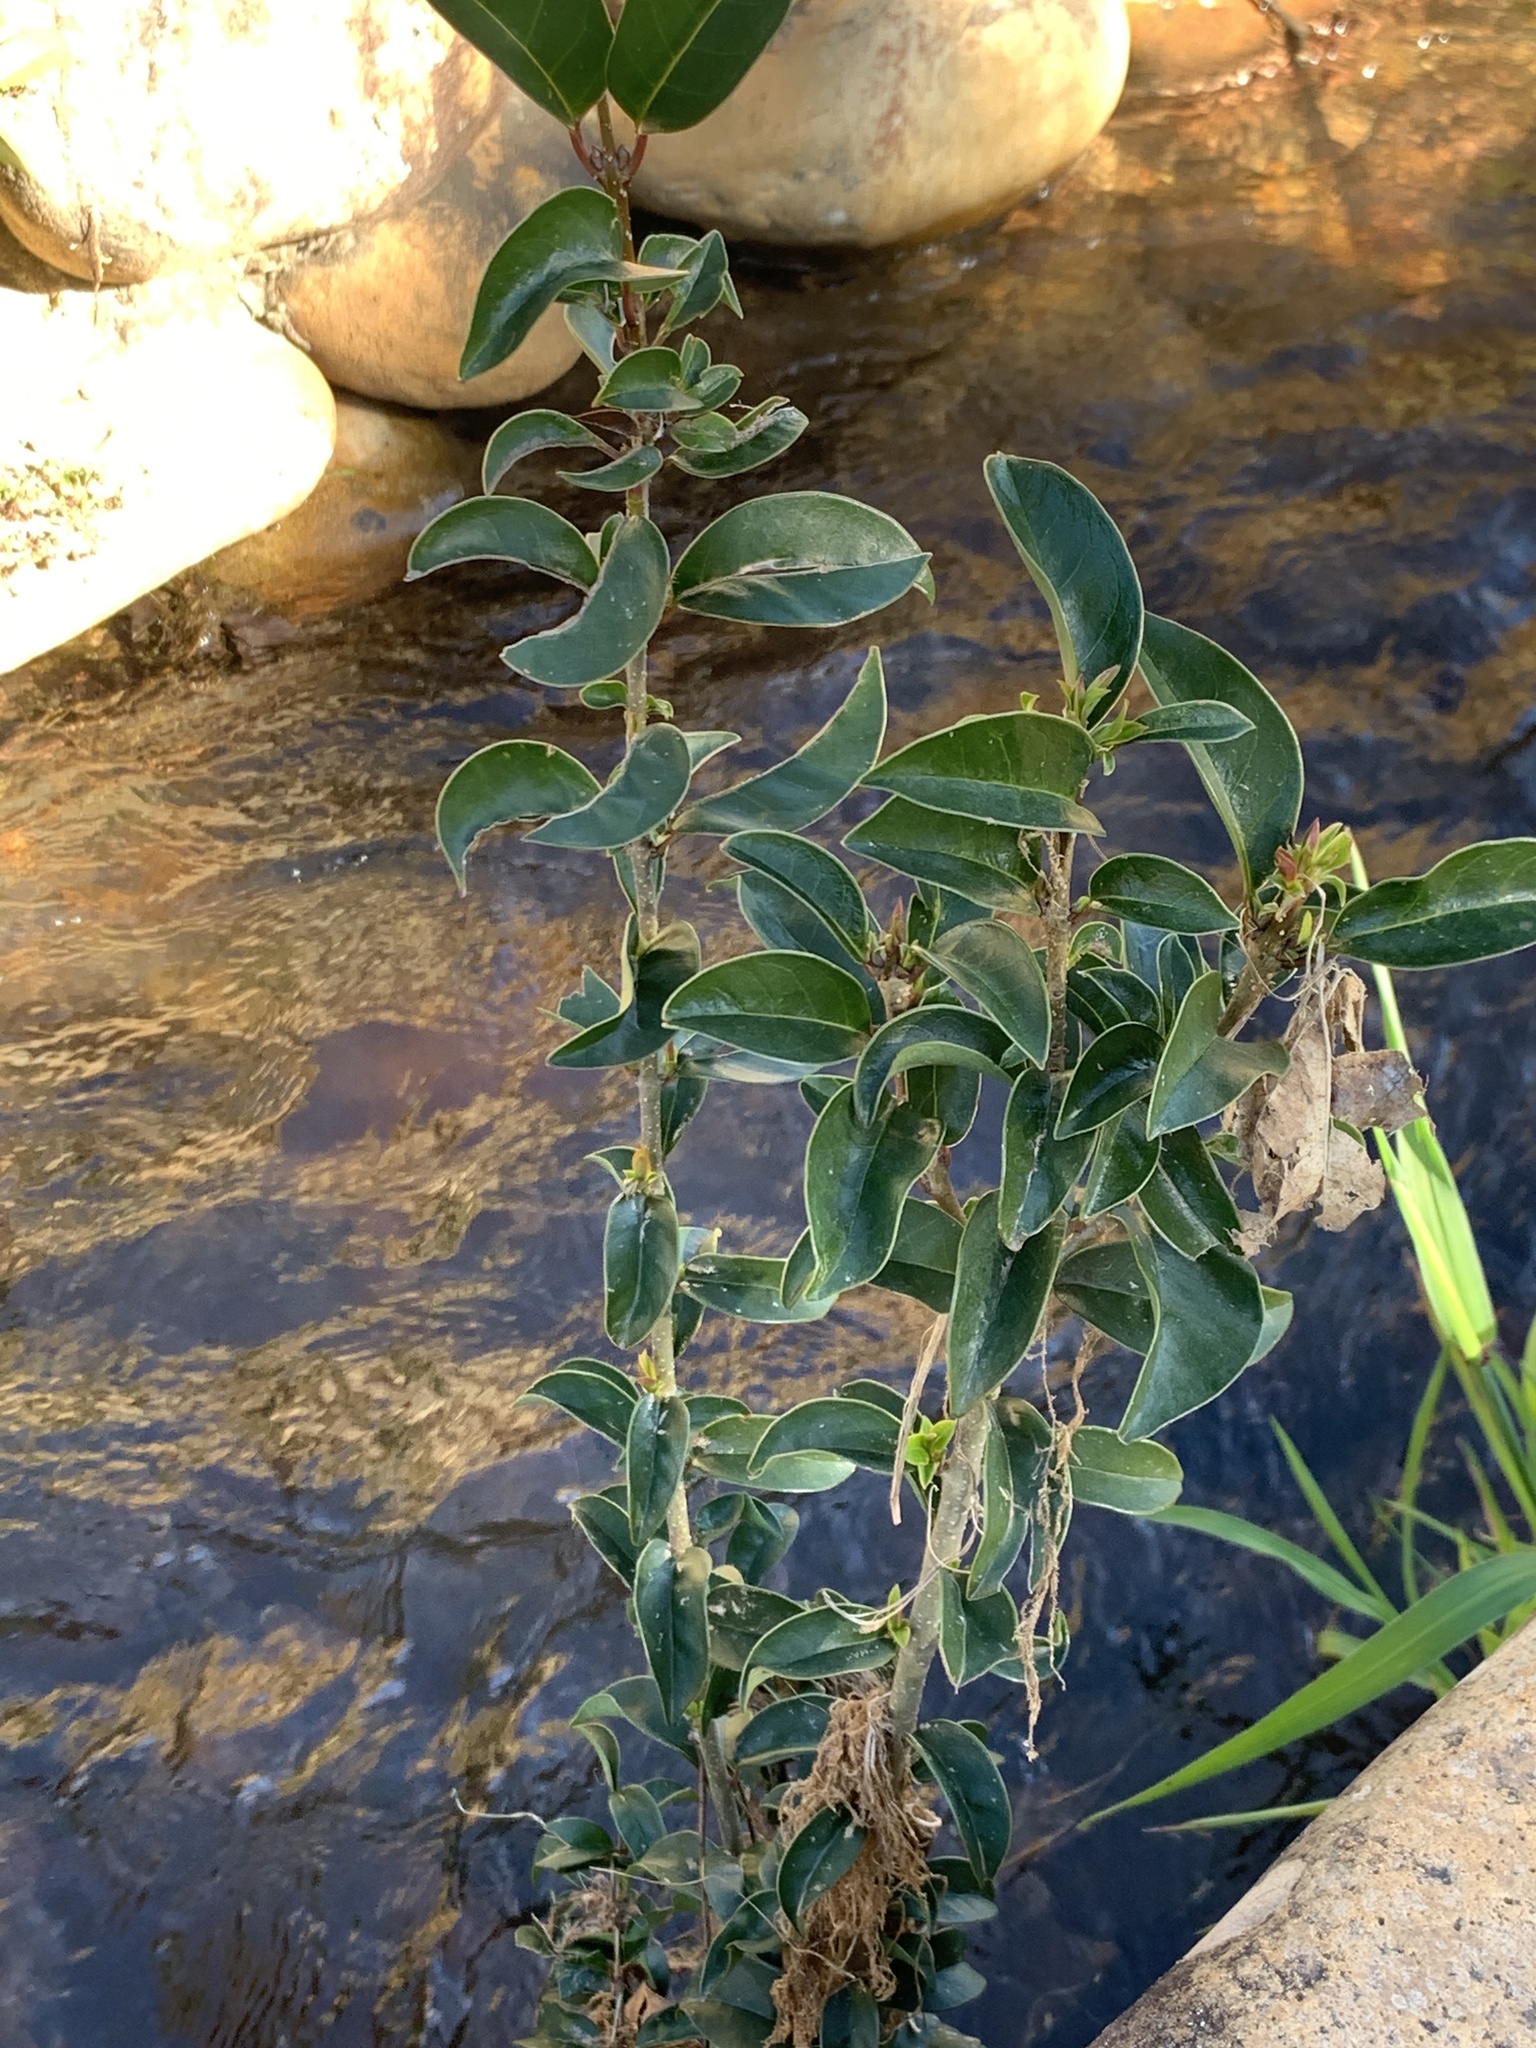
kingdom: Plantae
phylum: Tracheophyta
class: Magnoliopsida
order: Lamiales
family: Oleaceae
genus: Ligustrum
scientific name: Ligustrum lucidum
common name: Glossy privet
